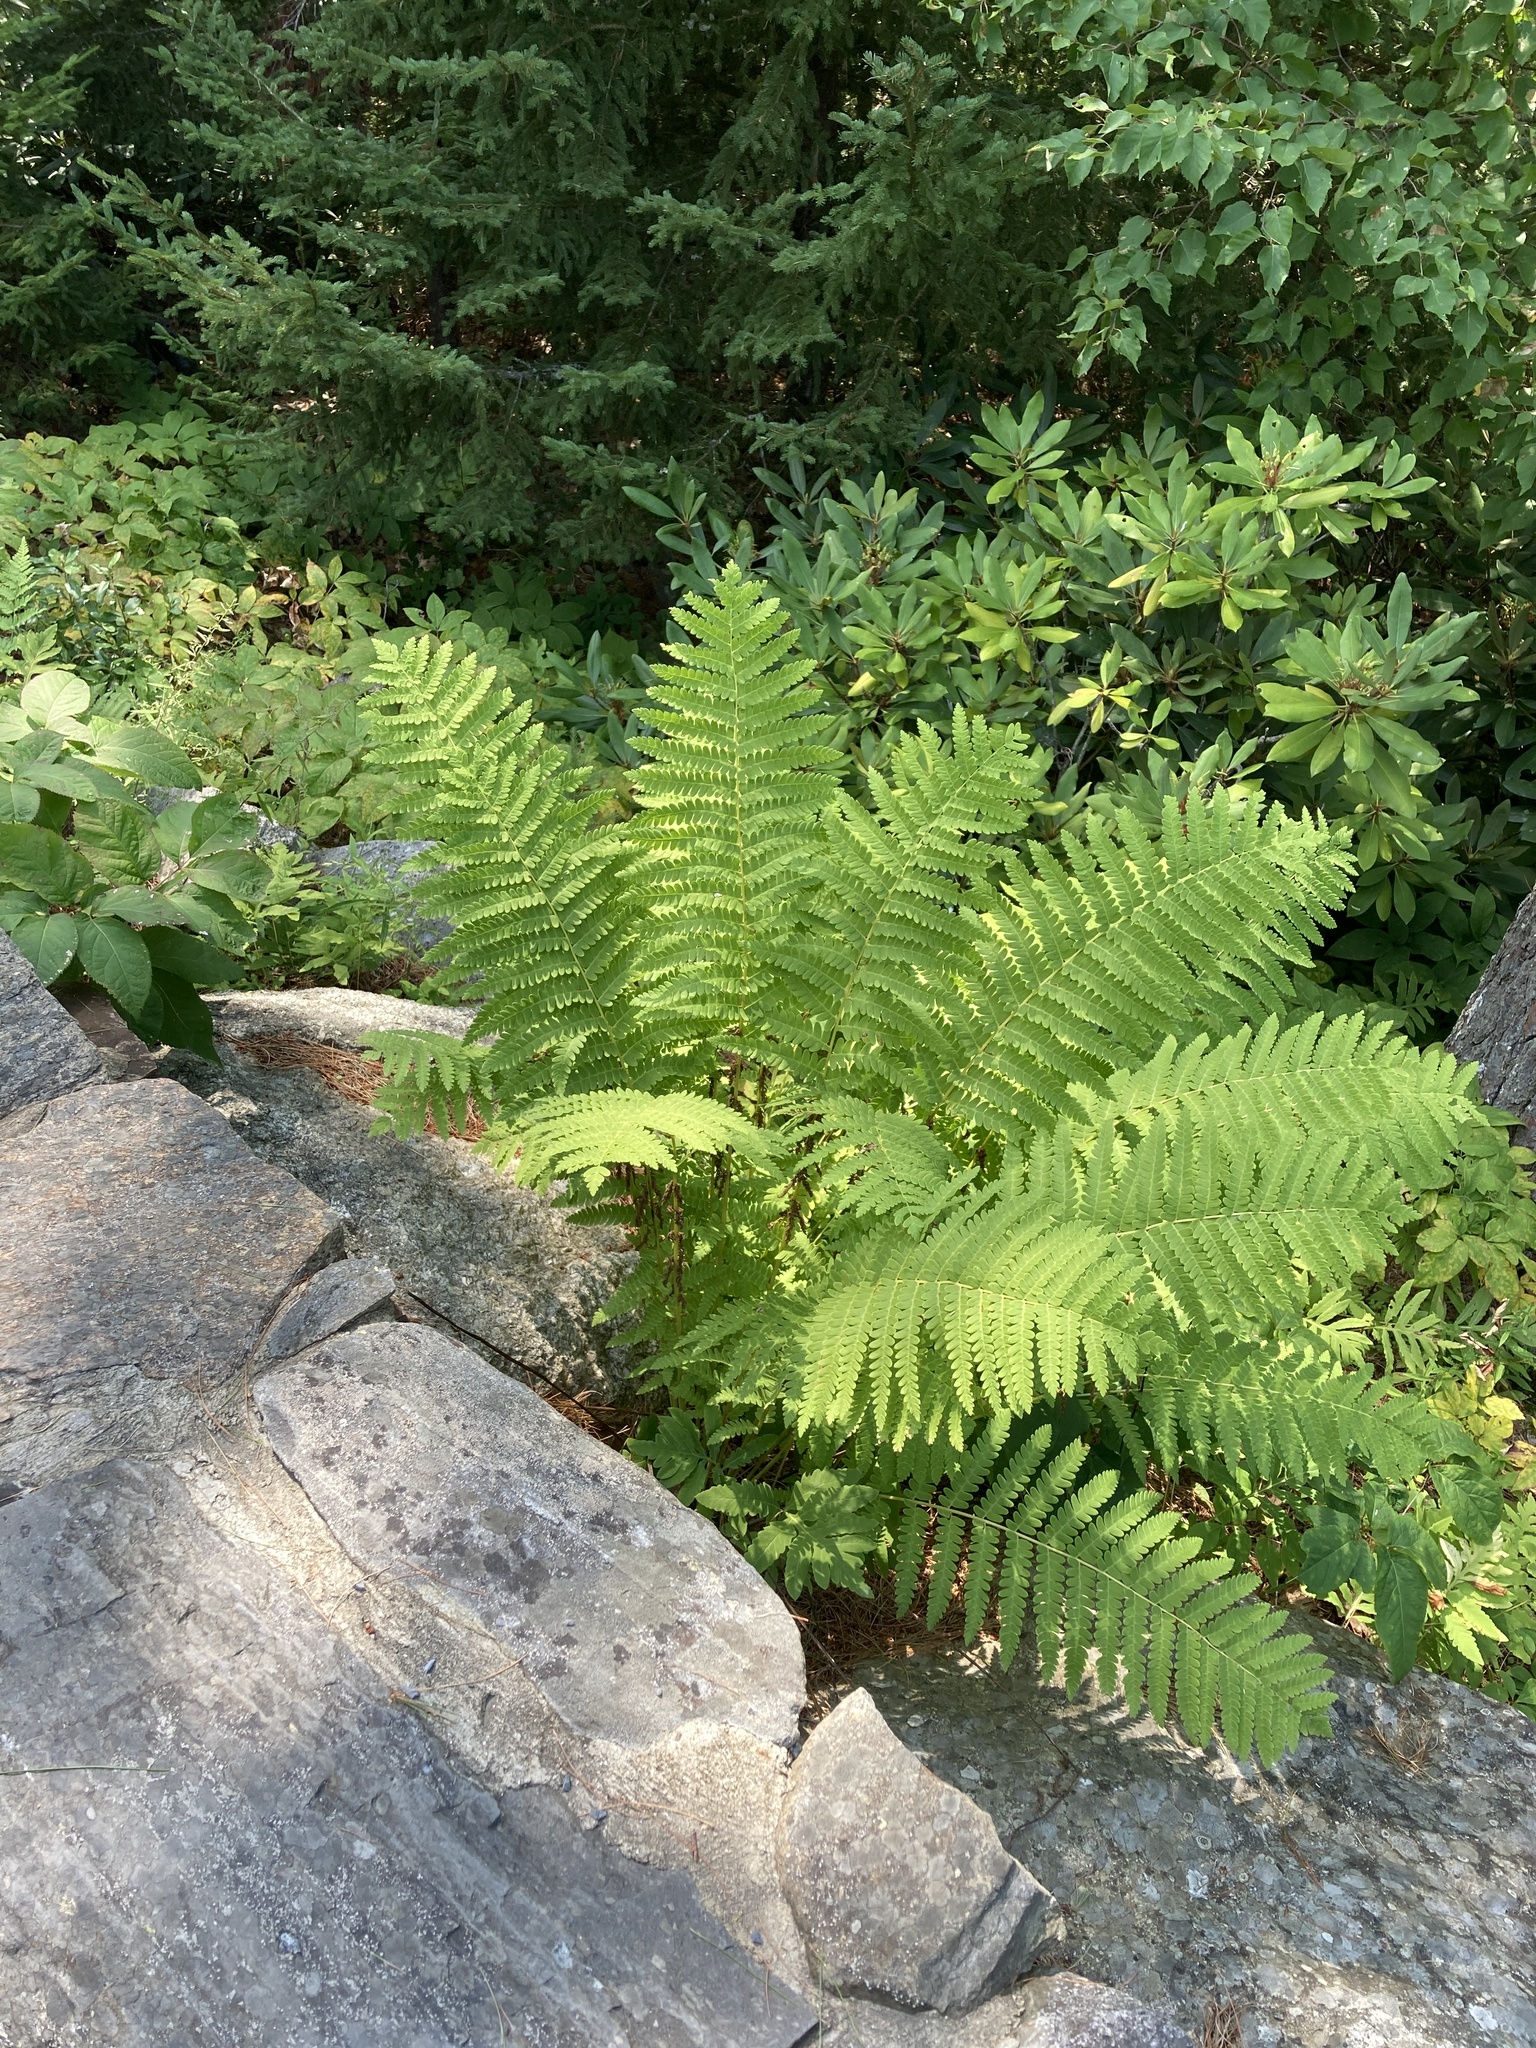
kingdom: Plantae
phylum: Tracheophyta
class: Polypodiopsida
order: Osmundales
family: Osmundaceae
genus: Claytosmunda
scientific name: Claytosmunda claytoniana
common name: Clayton's fern
